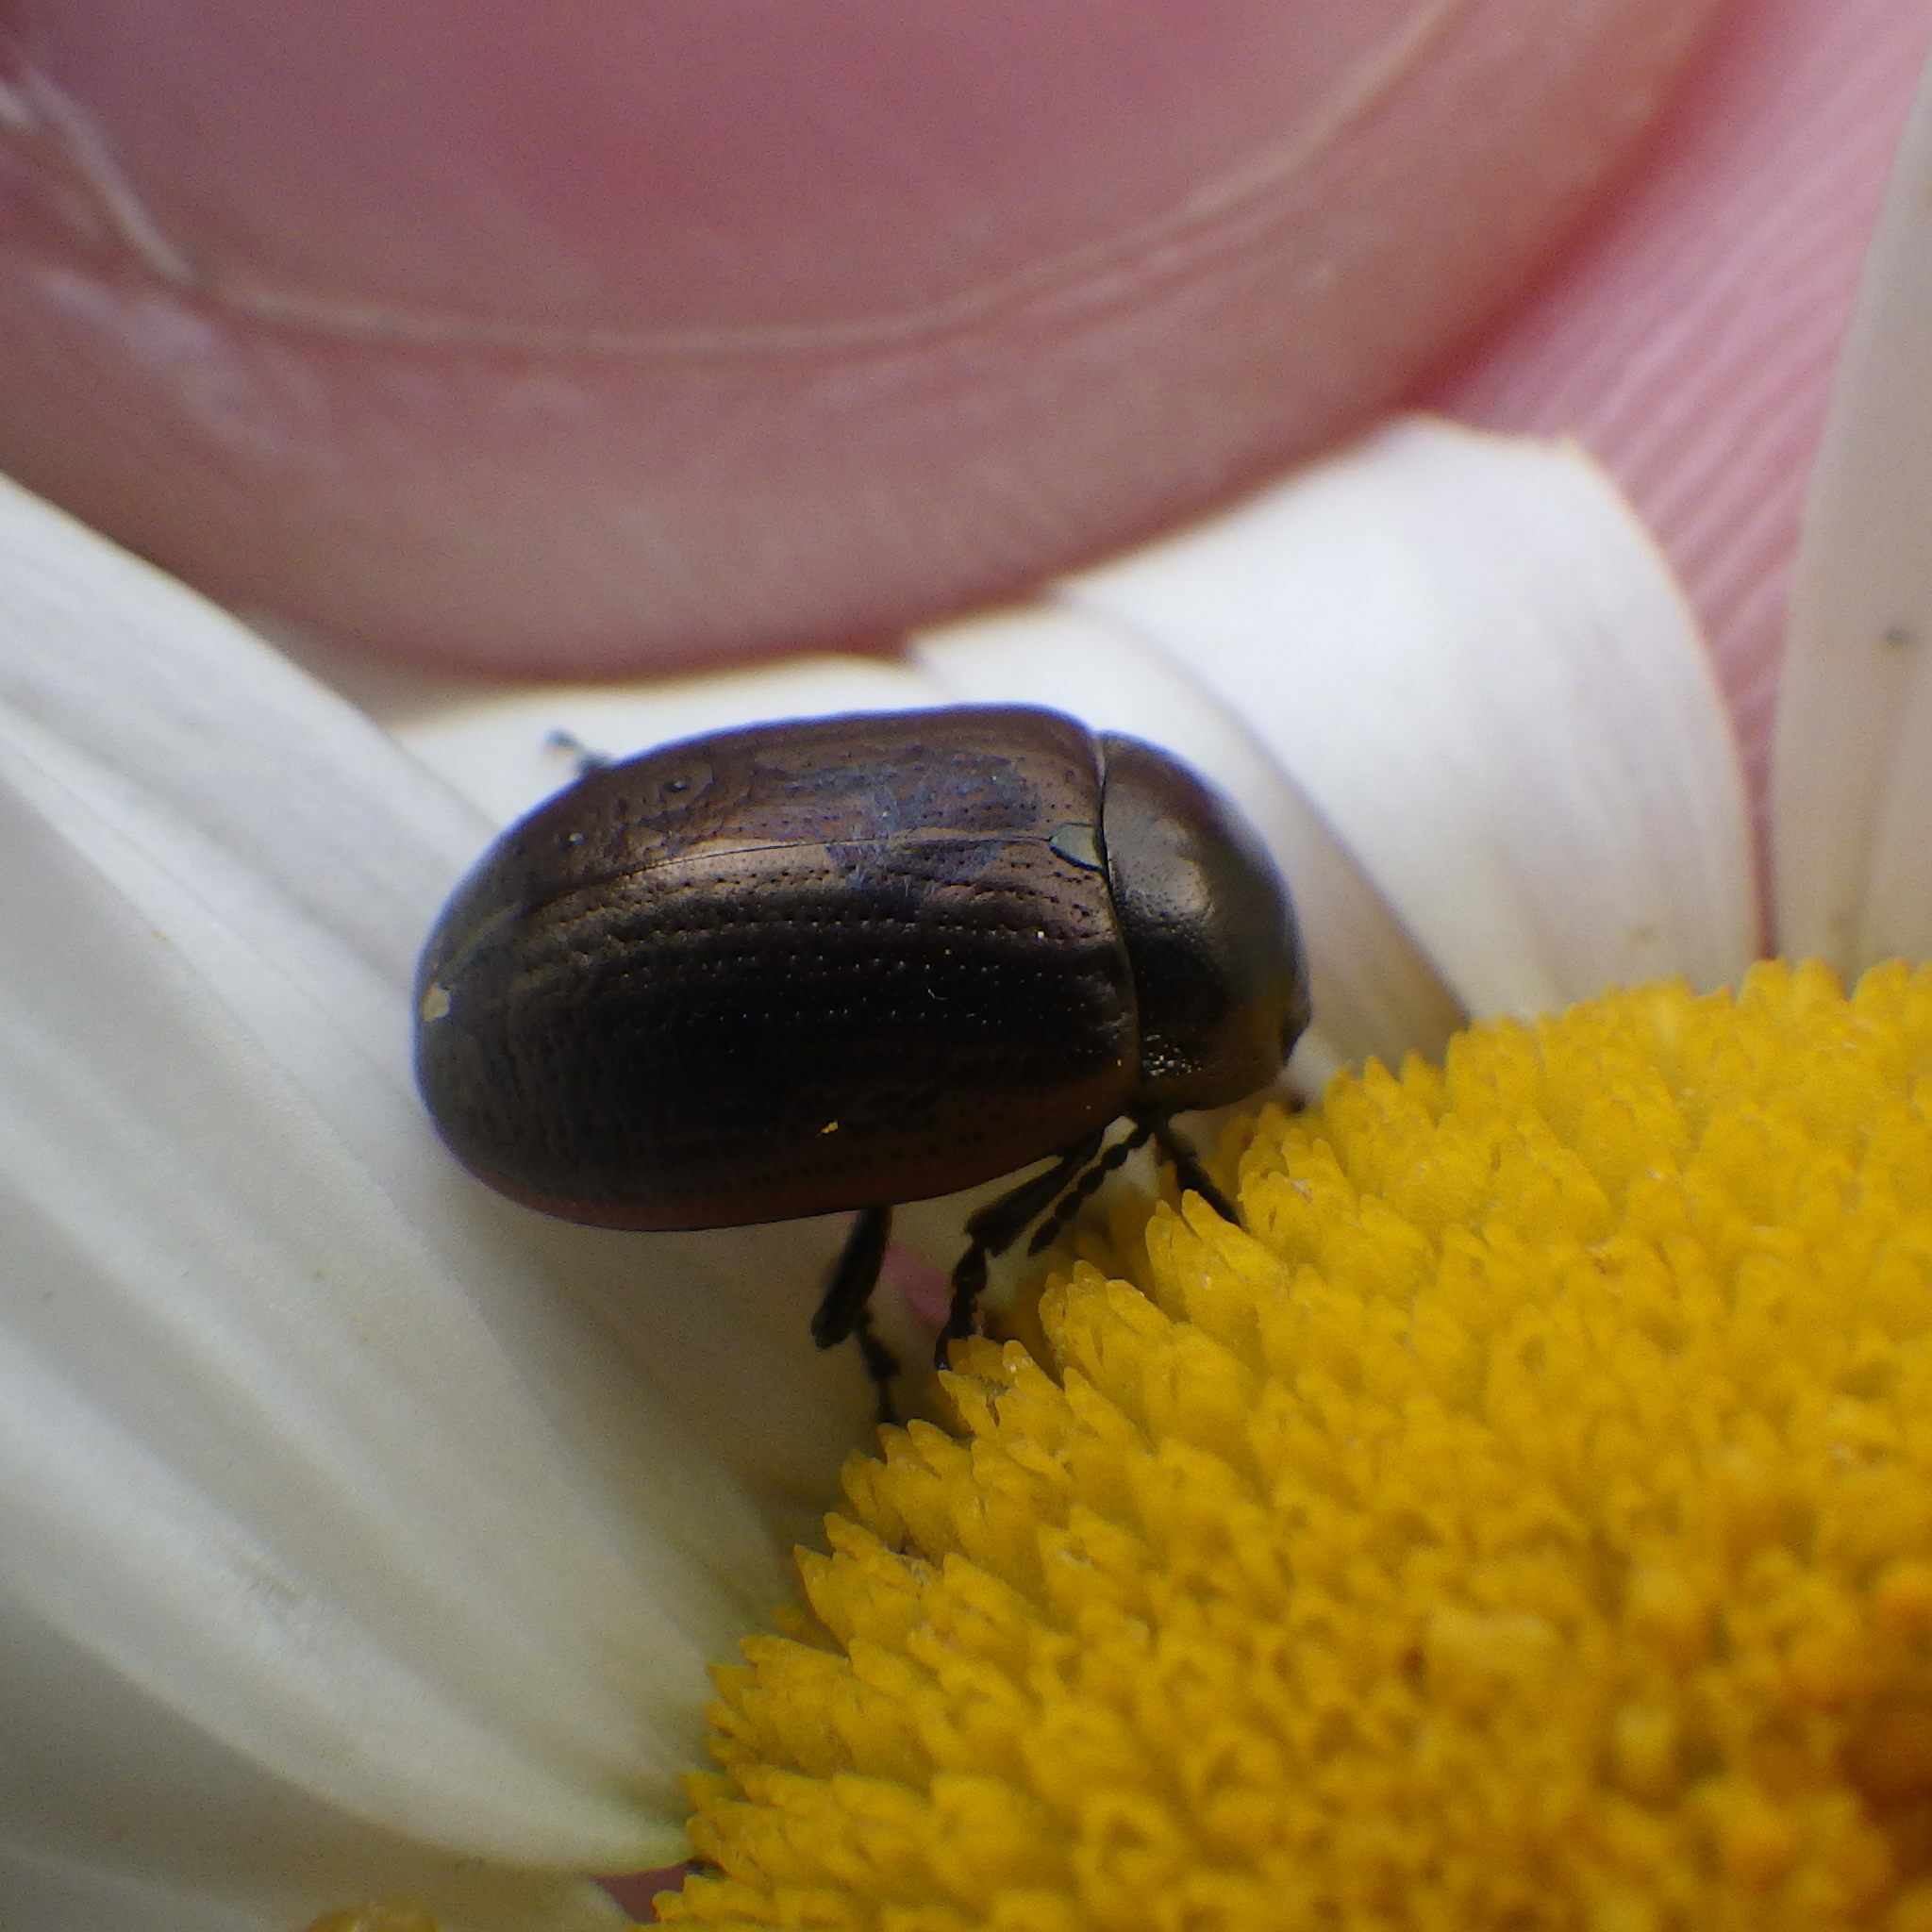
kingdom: Animalia
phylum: Arthropoda
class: Insecta
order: Coleoptera
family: Chrysomelidae
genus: Chrysolina
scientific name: Chrysolina marginata
